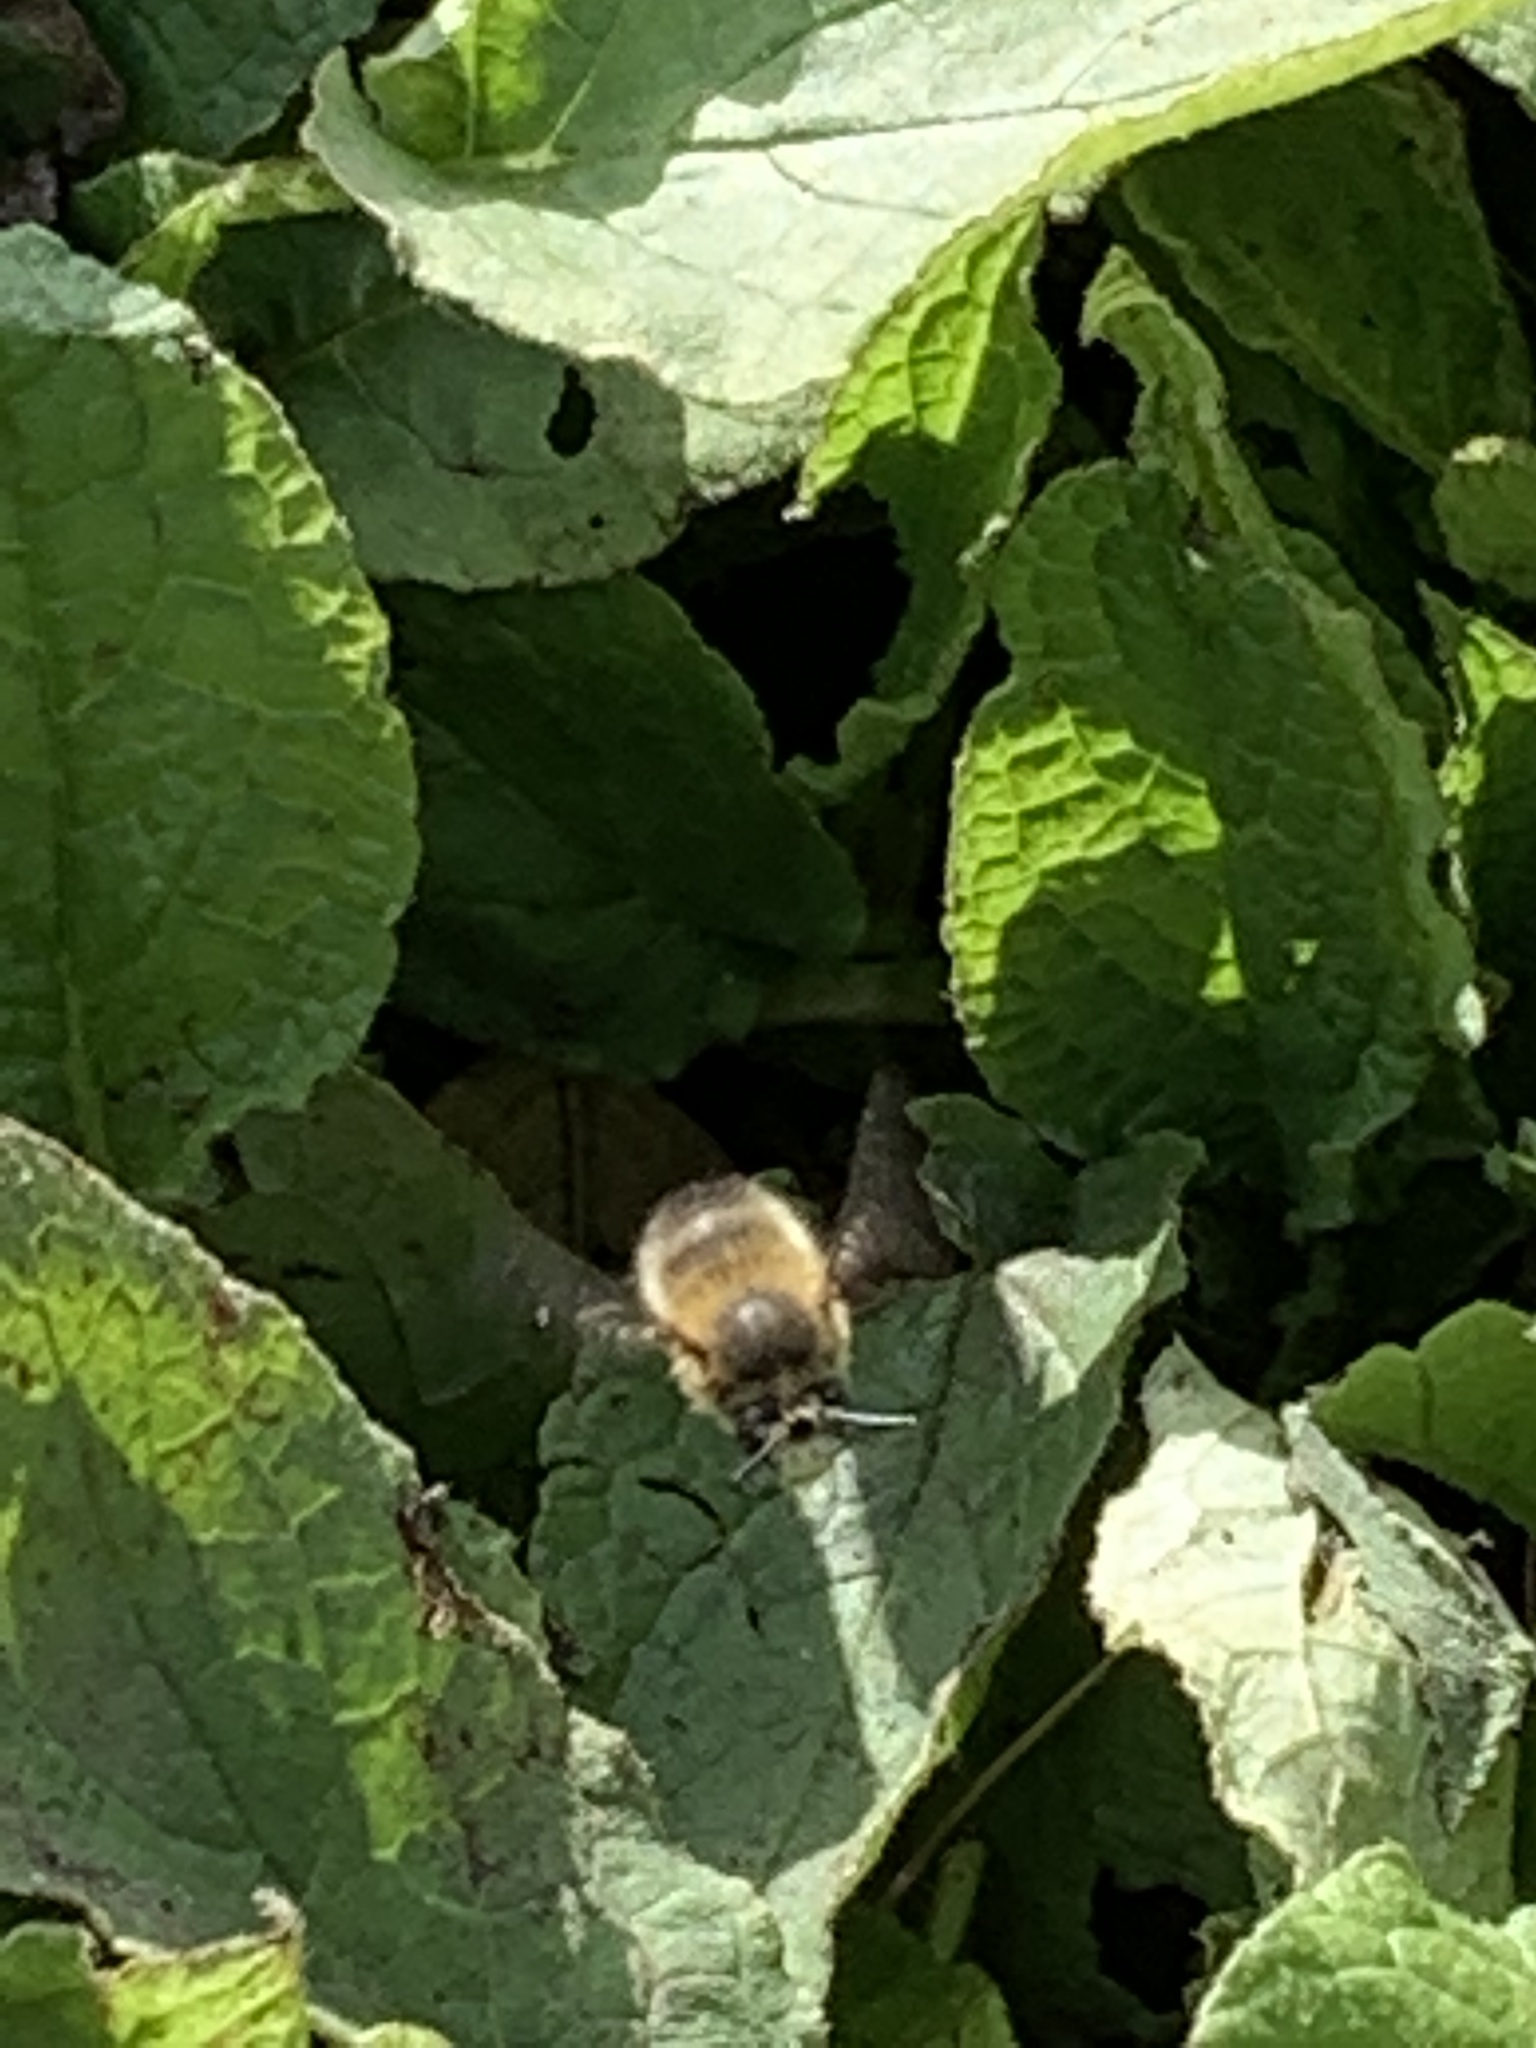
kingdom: Animalia
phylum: Arthropoda
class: Insecta
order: Hymenoptera
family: Apidae
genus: Anthophora
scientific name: Anthophora plumipes
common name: Hairy-footed flower bee
